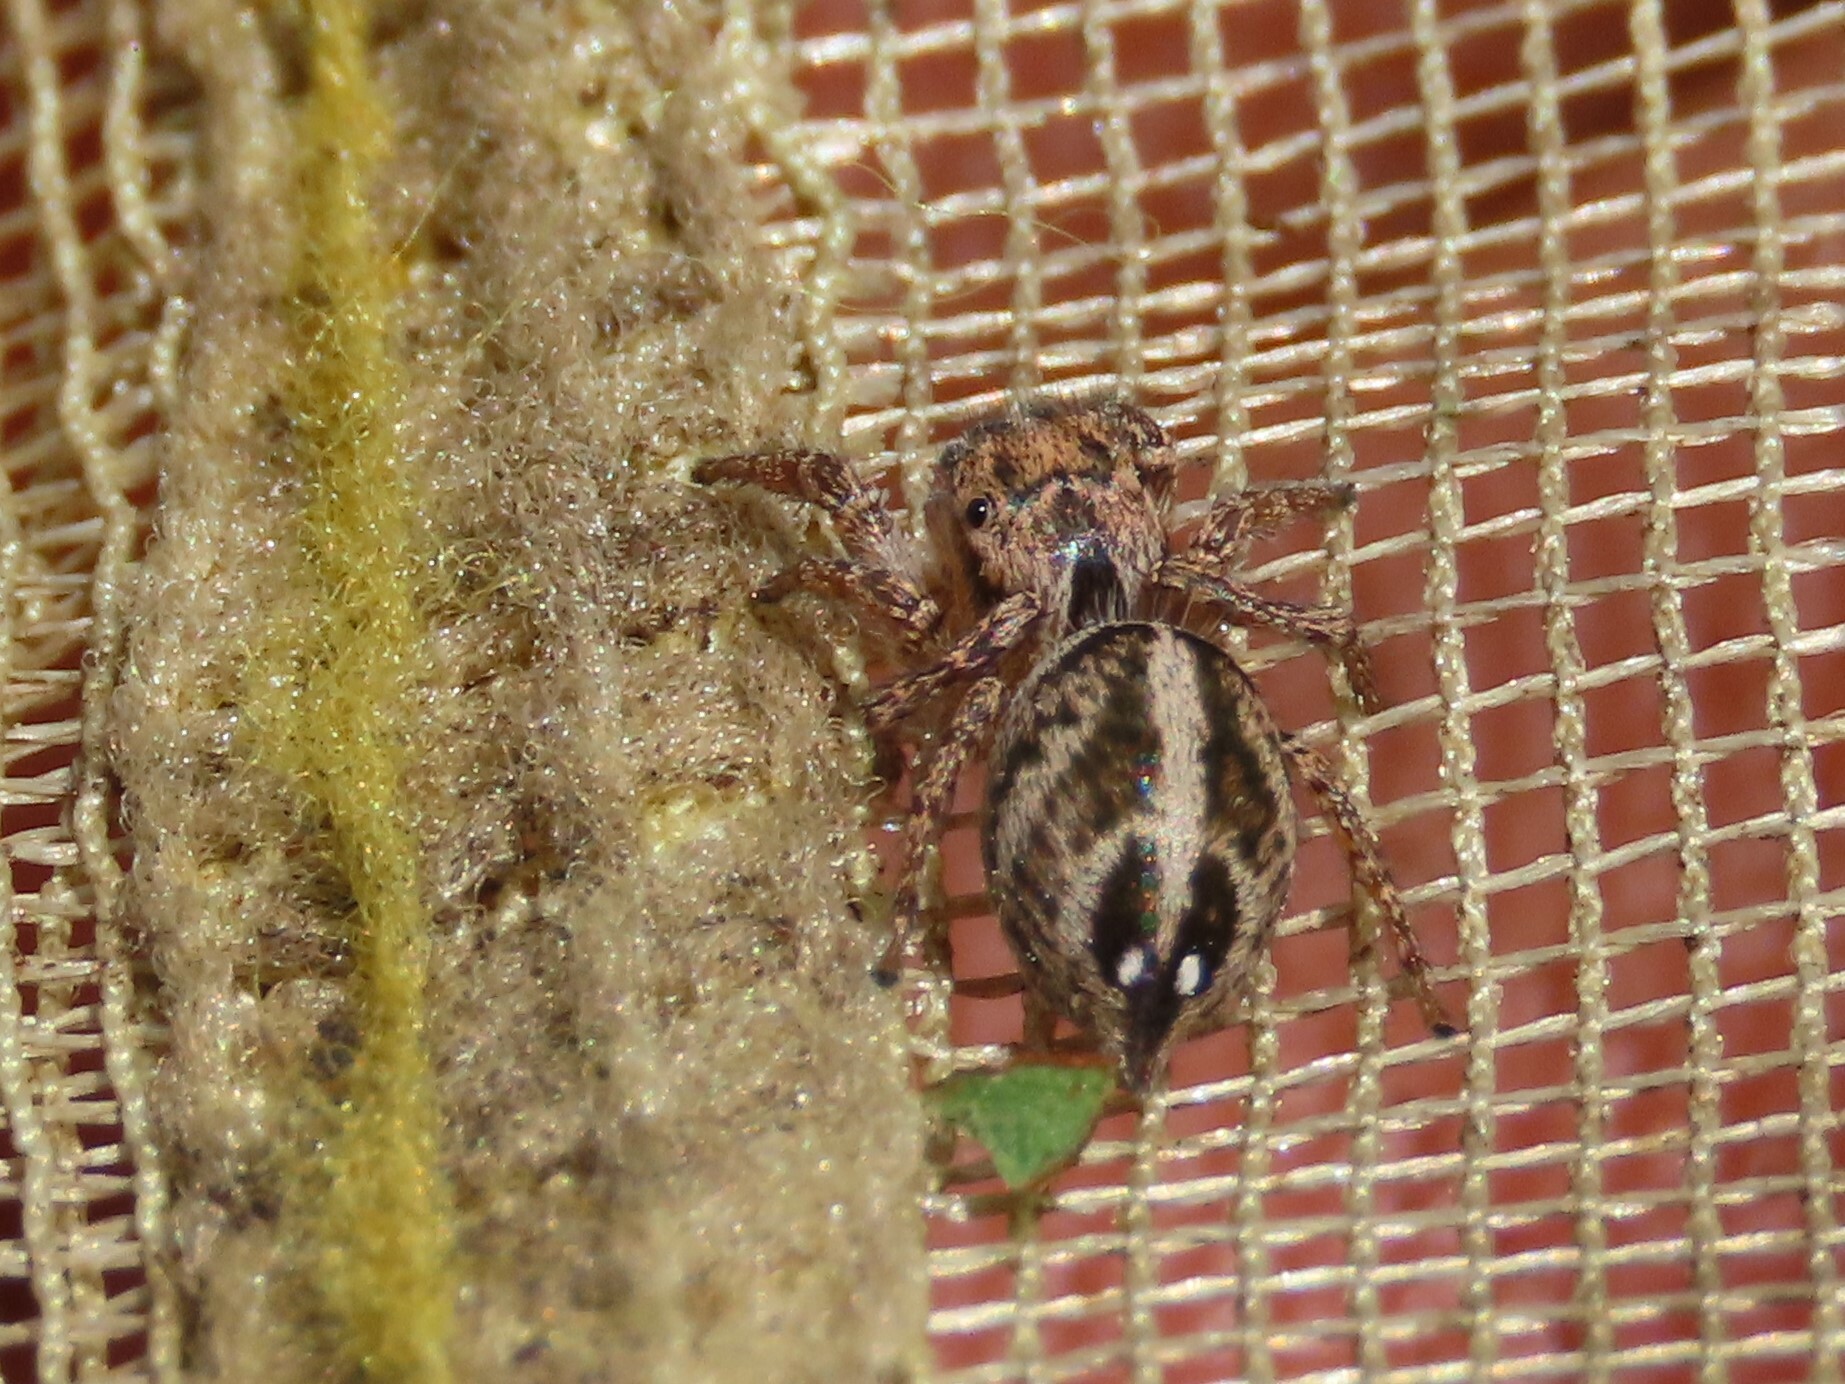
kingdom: Animalia
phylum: Arthropoda
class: Arachnida
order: Araneae
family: Salticidae
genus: Habronattus
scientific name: Habronattus trimaculatus
